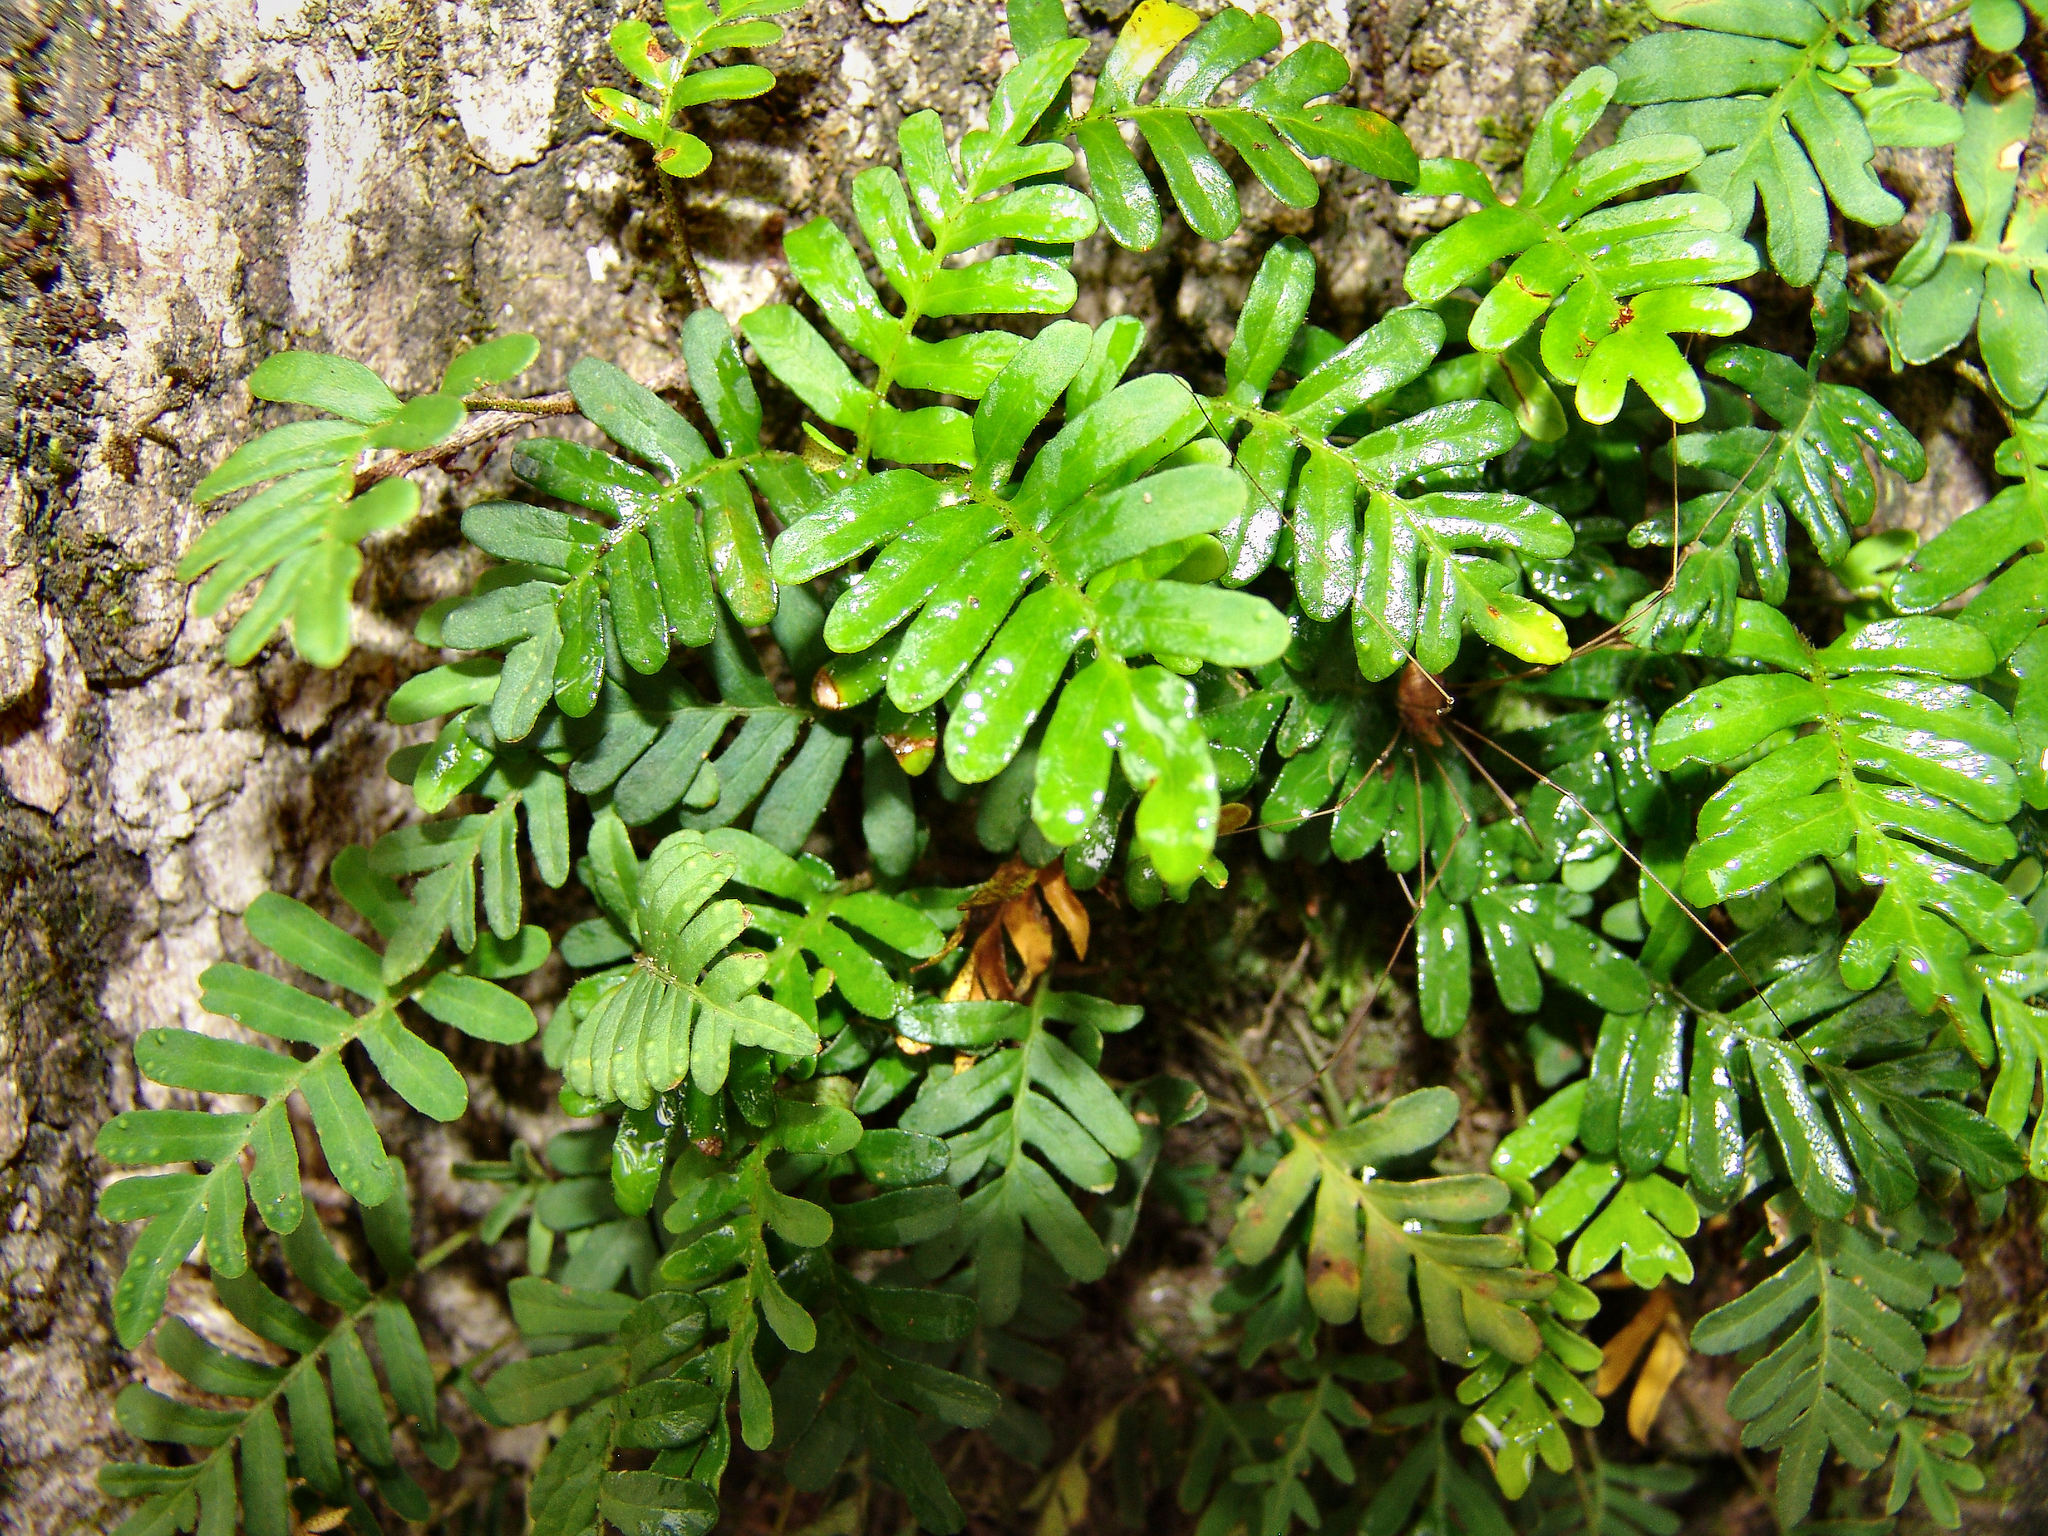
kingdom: Plantae
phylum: Tracheophyta
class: Polypodiopsida
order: Polypodiales
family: Polypodiaceae
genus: Pleopeltis
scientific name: Pleopeltis michauxiana
